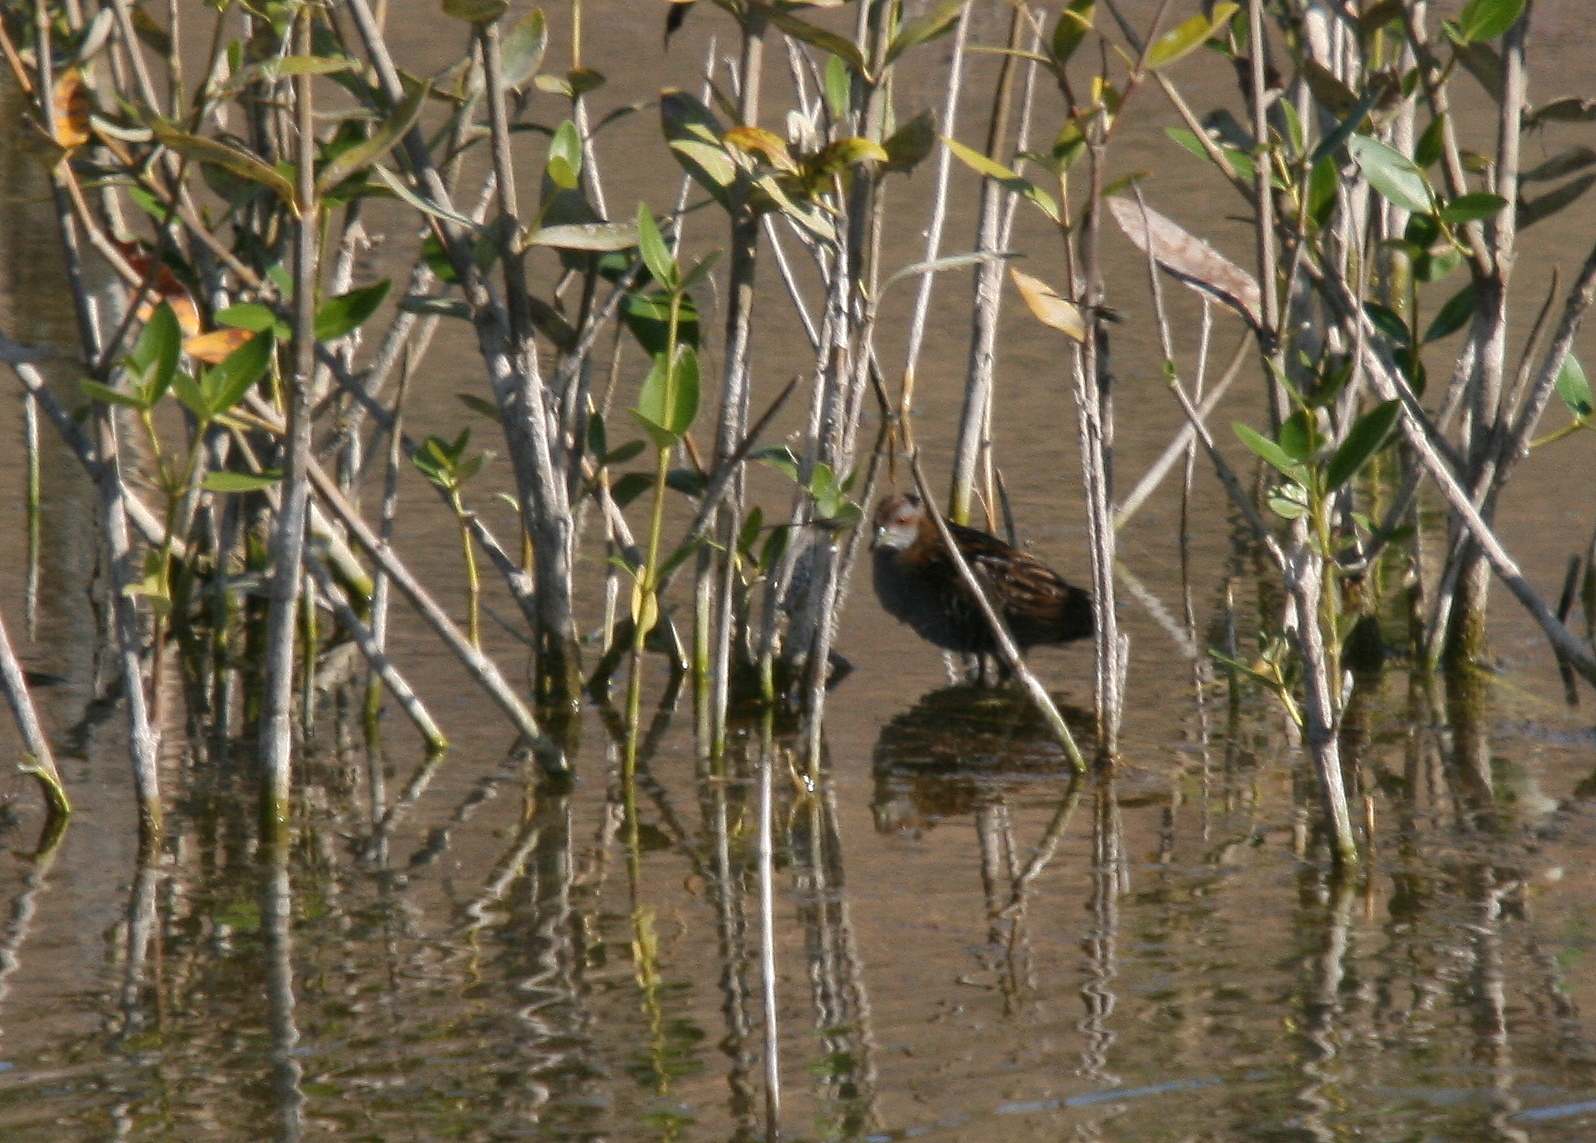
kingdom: Animalia
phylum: Chordata
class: Aves
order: Gruiformes
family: Rallidae
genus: Porzana
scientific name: Porzana pusilla
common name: Baillon's crake
